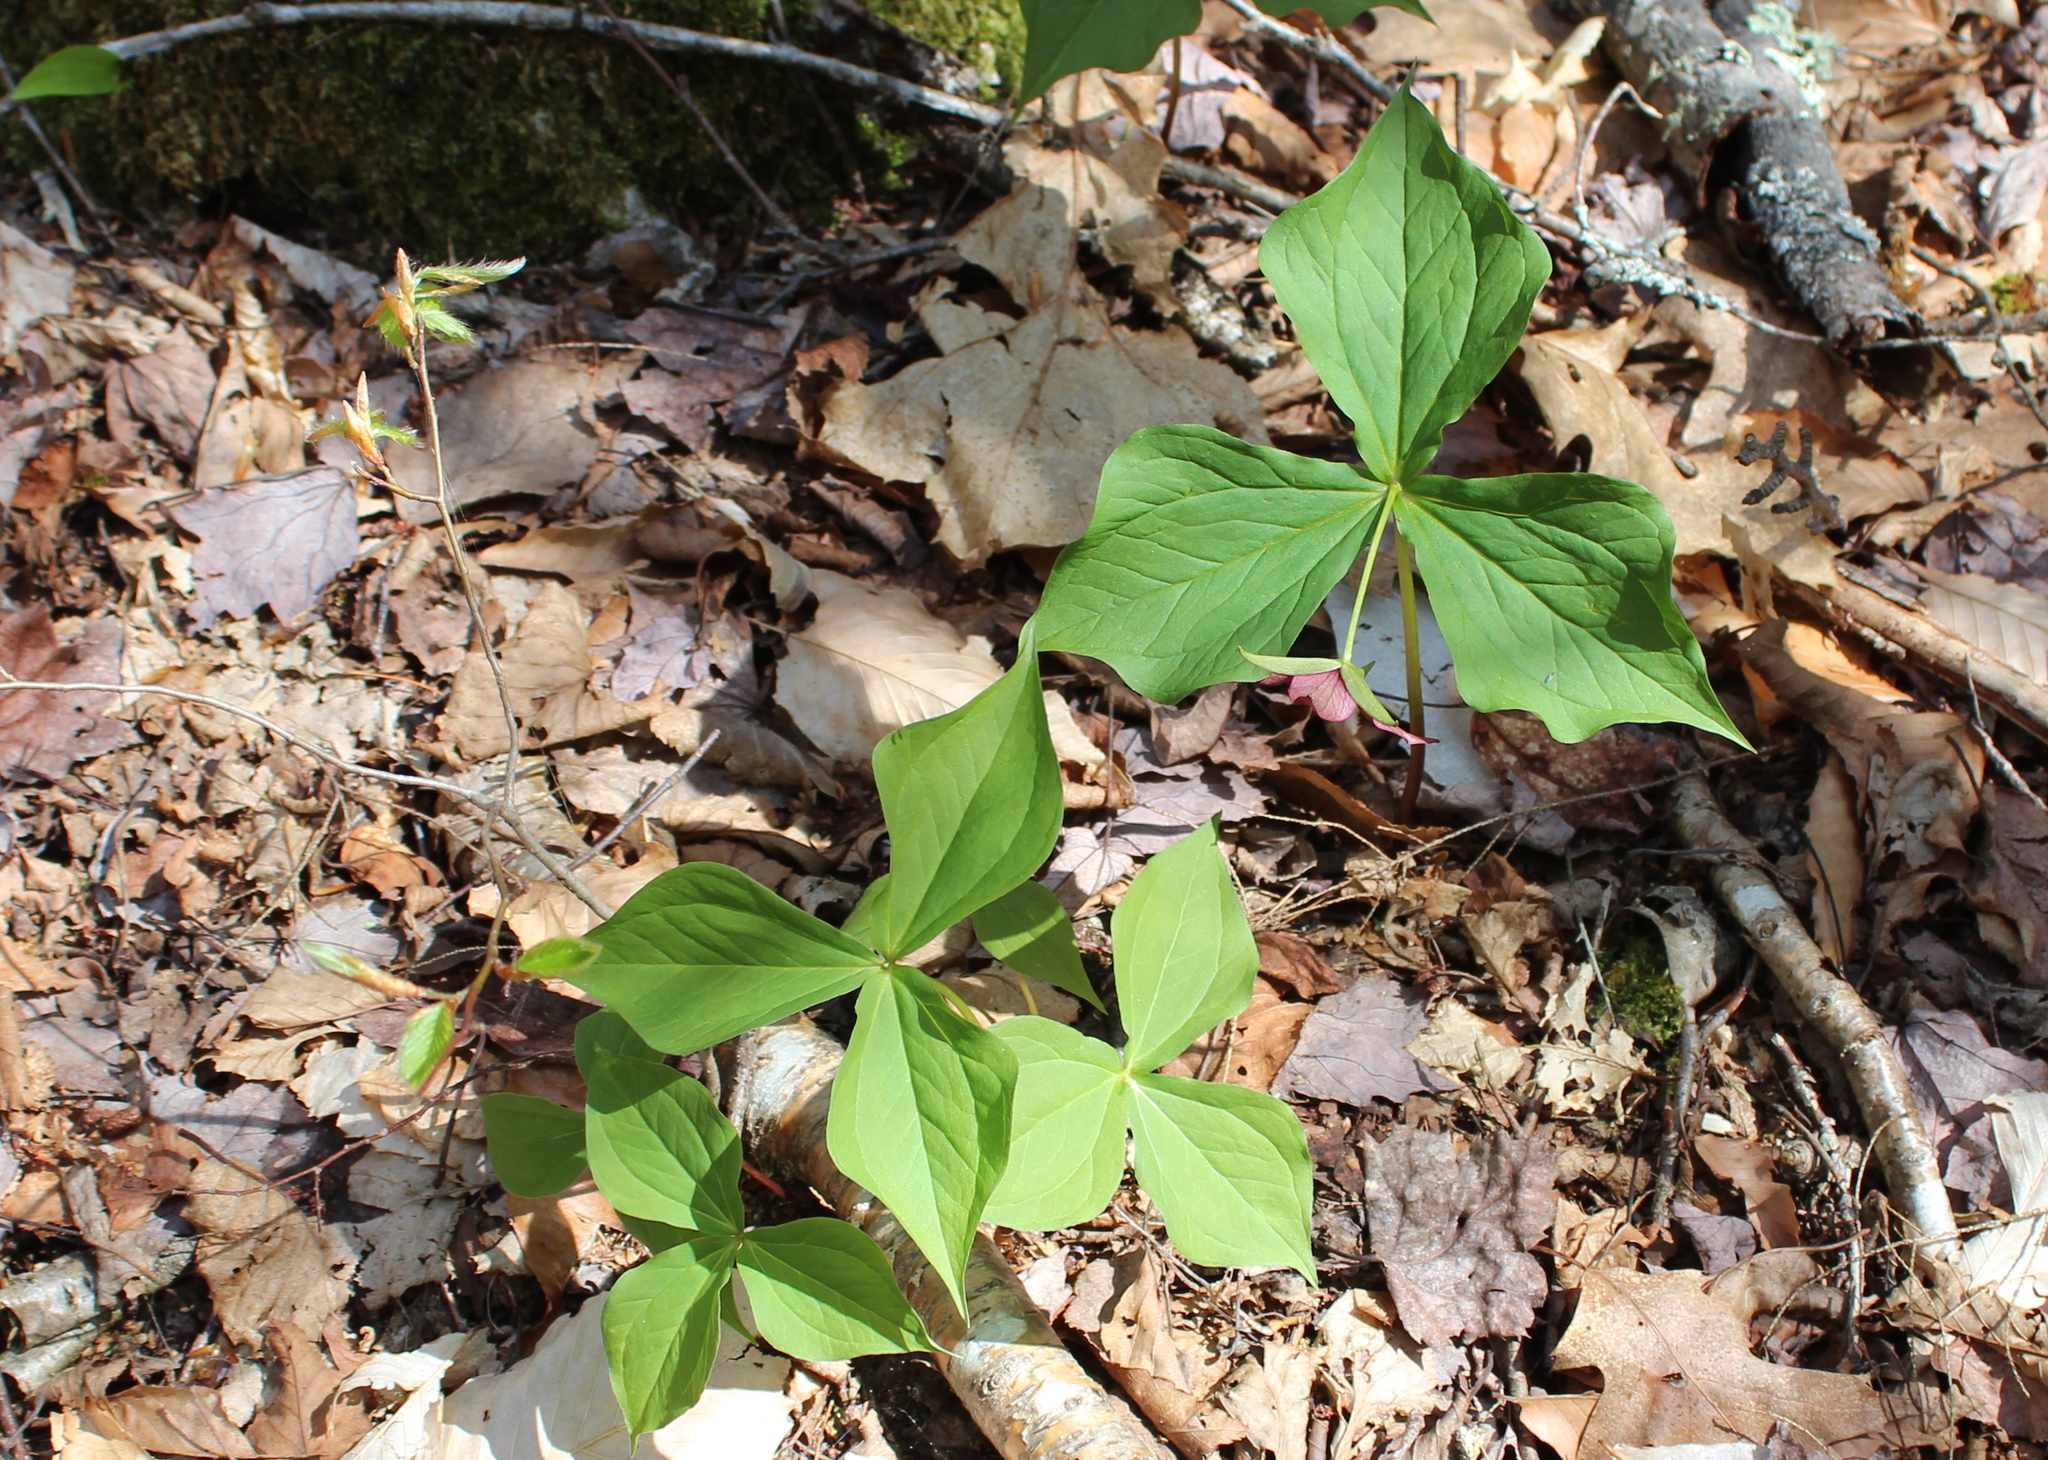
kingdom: Plantae
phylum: Tracheophyta
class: Liliopsida
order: Liliales
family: Melanthiaceae
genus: Trillium
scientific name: Trillium erectum
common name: Purple trillium
